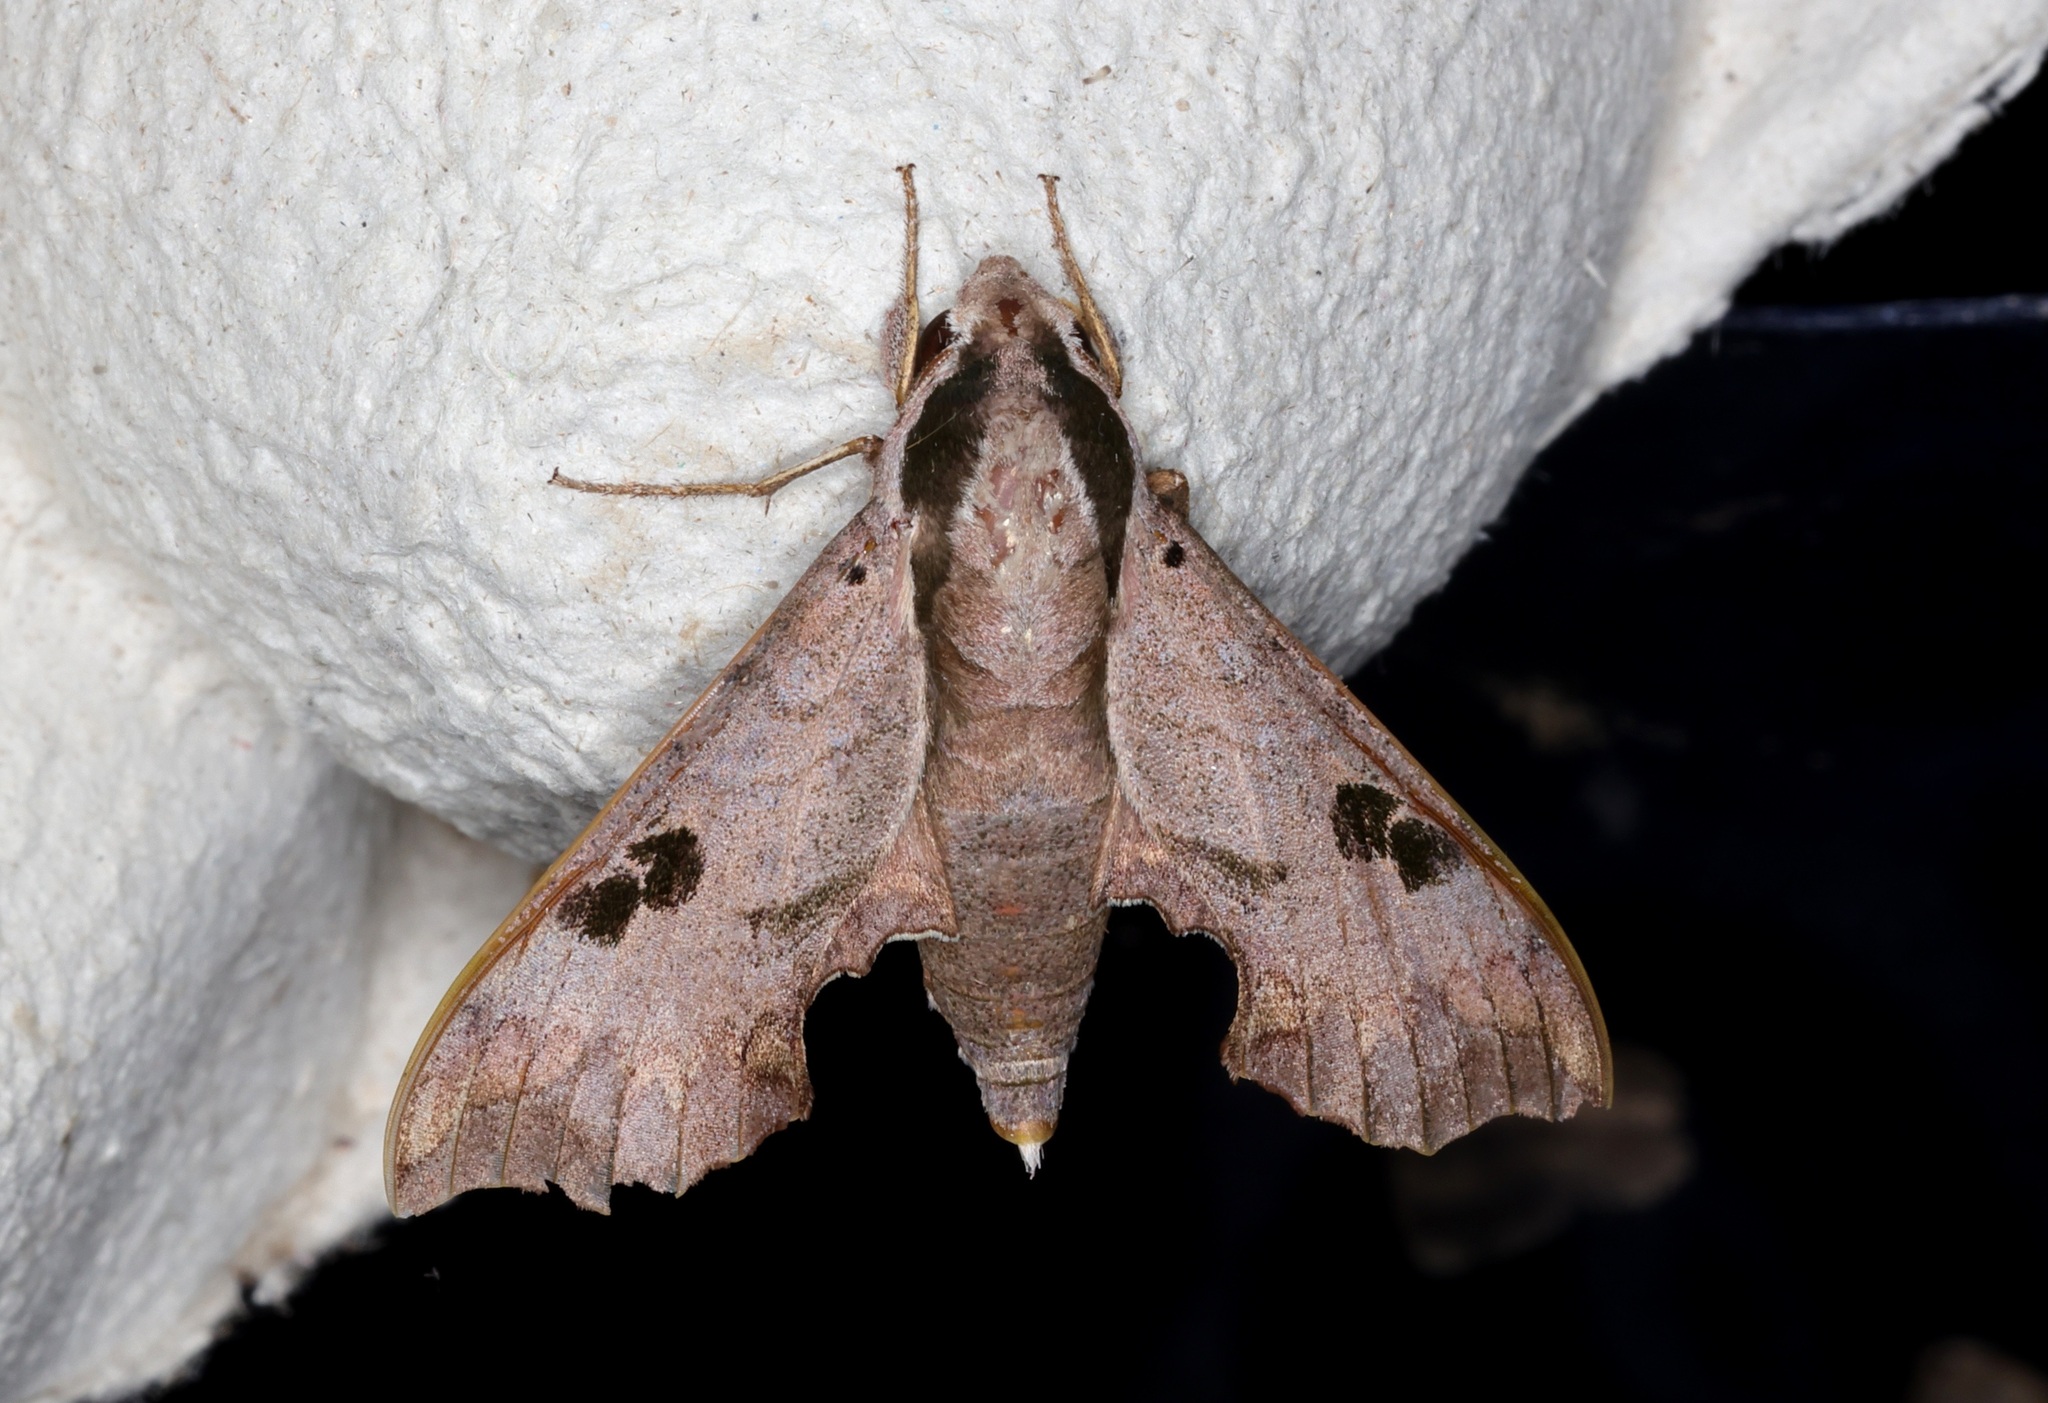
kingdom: Animalia
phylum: Arthropoda
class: Insecta
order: Lepidoptera
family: Sphingidae
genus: Enpinanga
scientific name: Enpinanga assamensis
